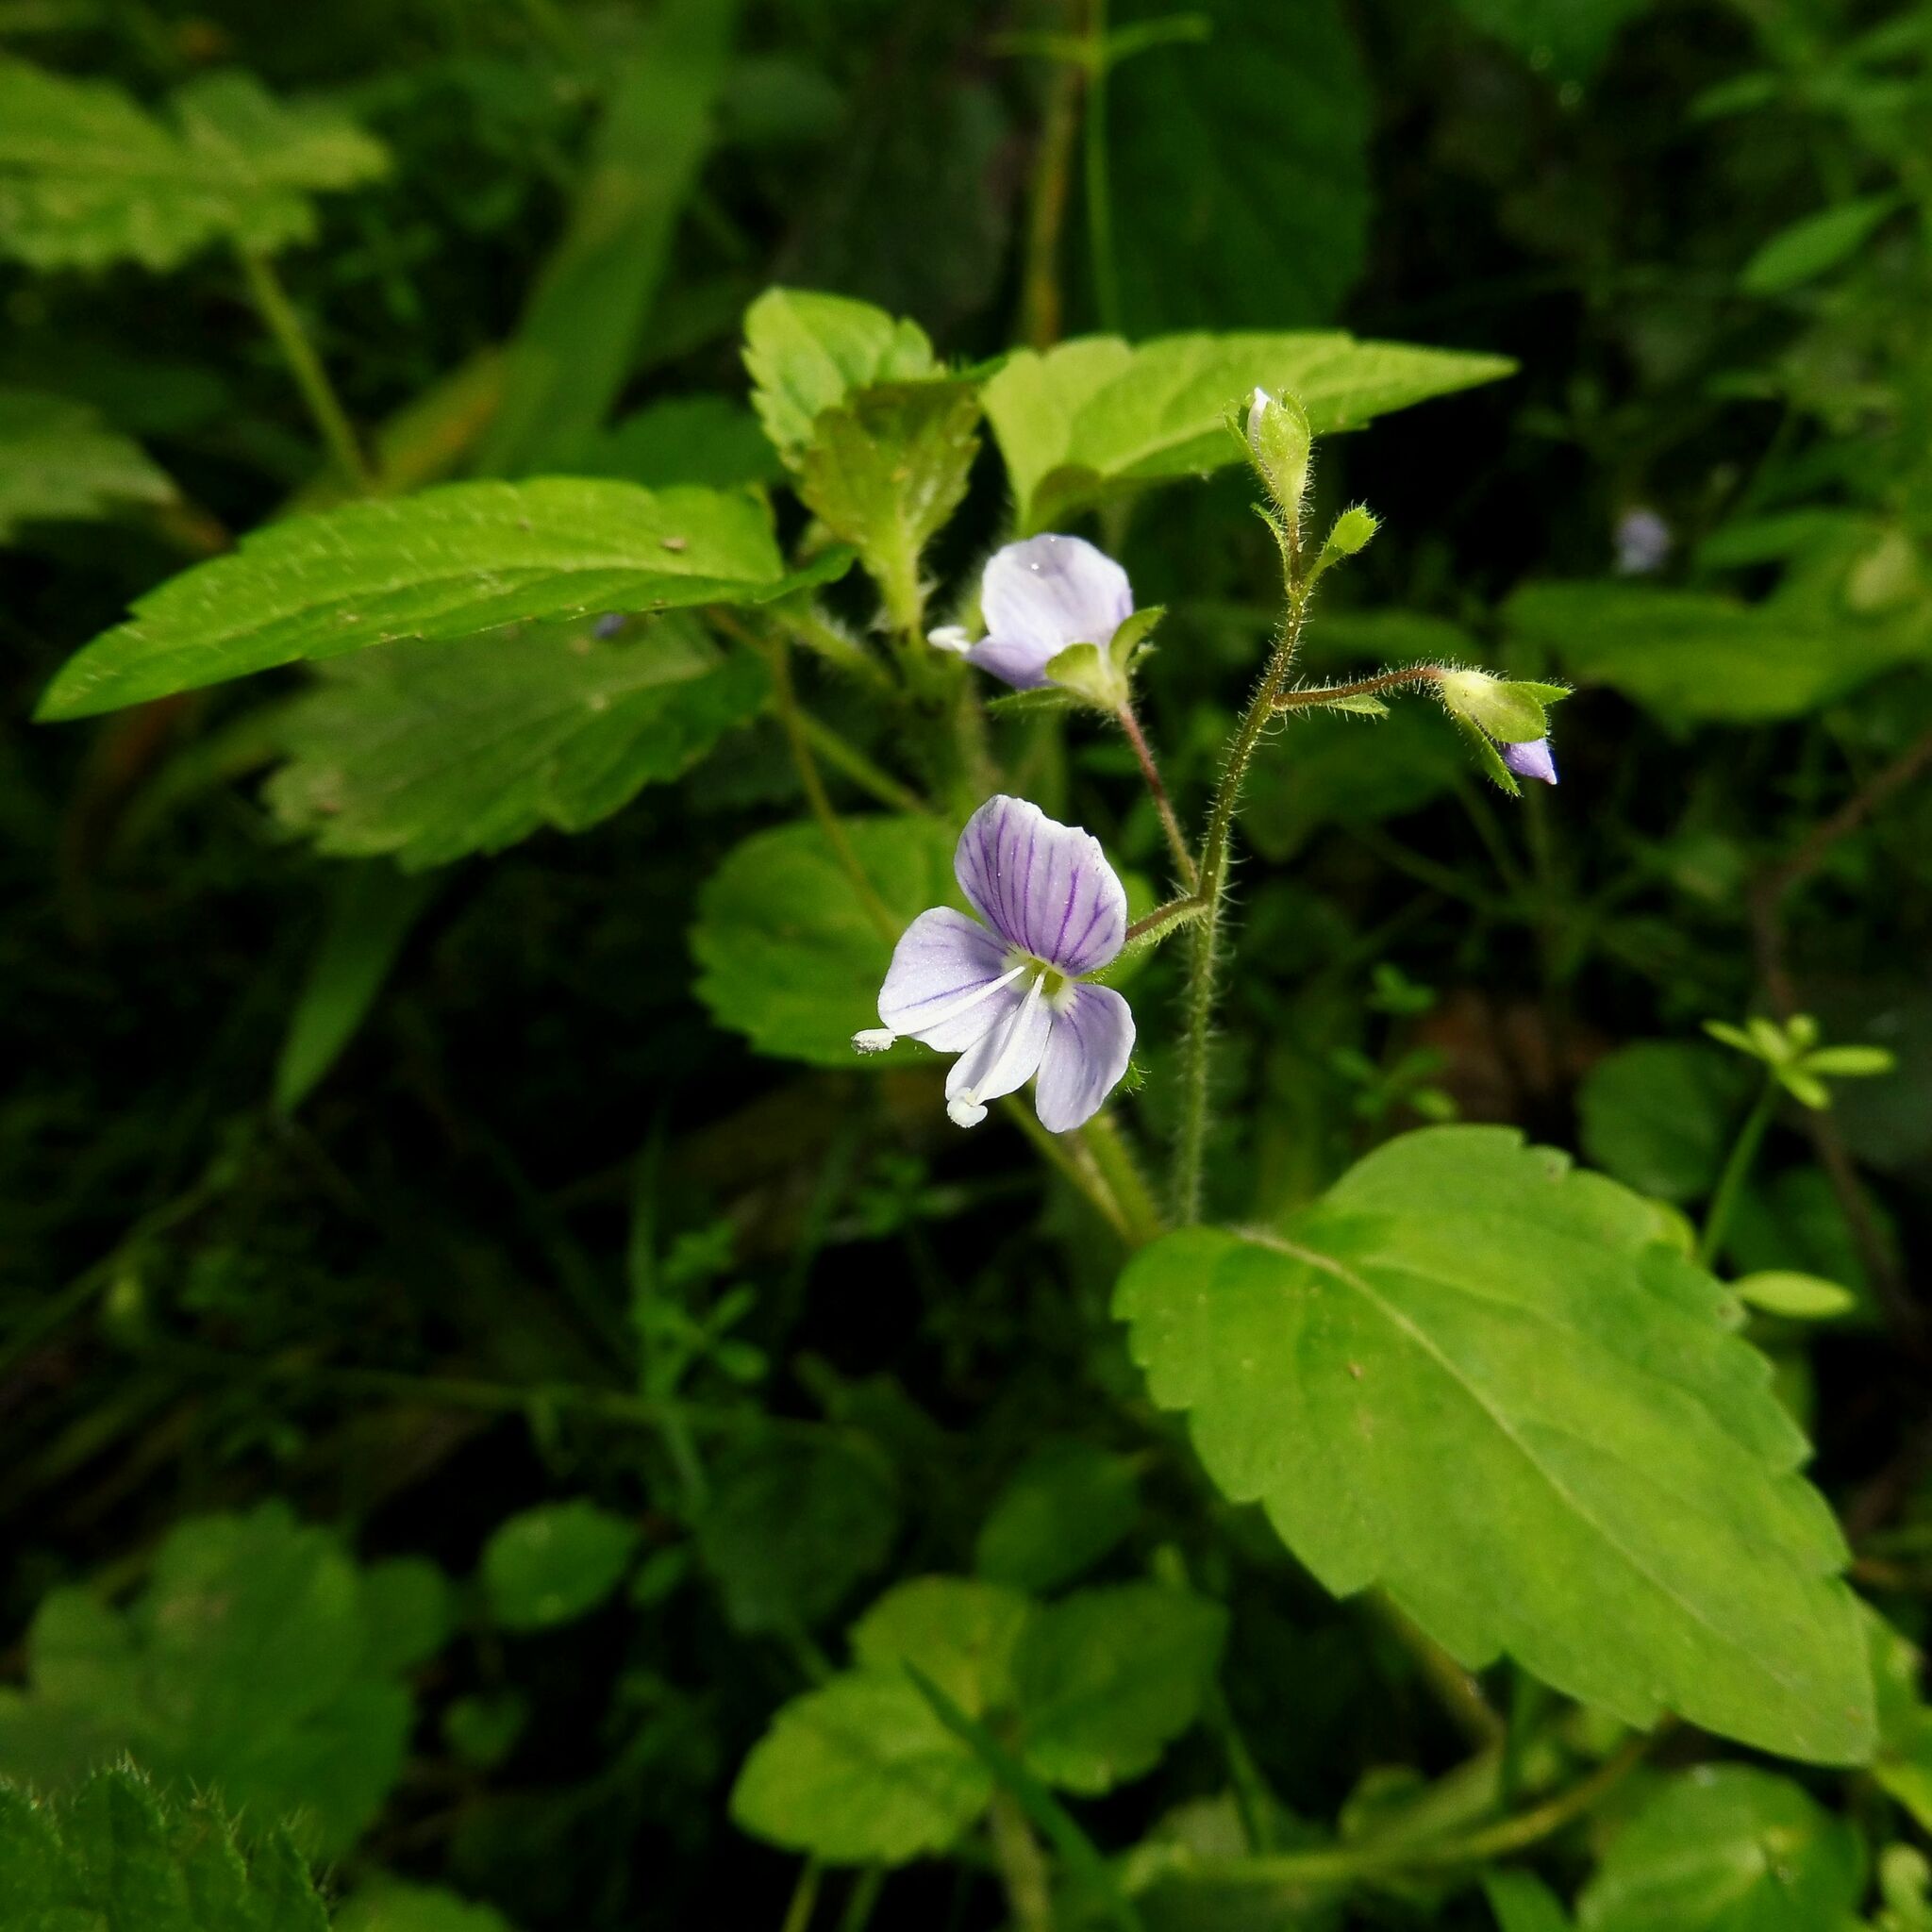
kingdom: Plantae
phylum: Tracheophyta
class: Magnoliopsida
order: Lamiales
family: Plantaginaceae
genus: Veronica
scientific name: Veronica montana
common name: Wood speedwell
